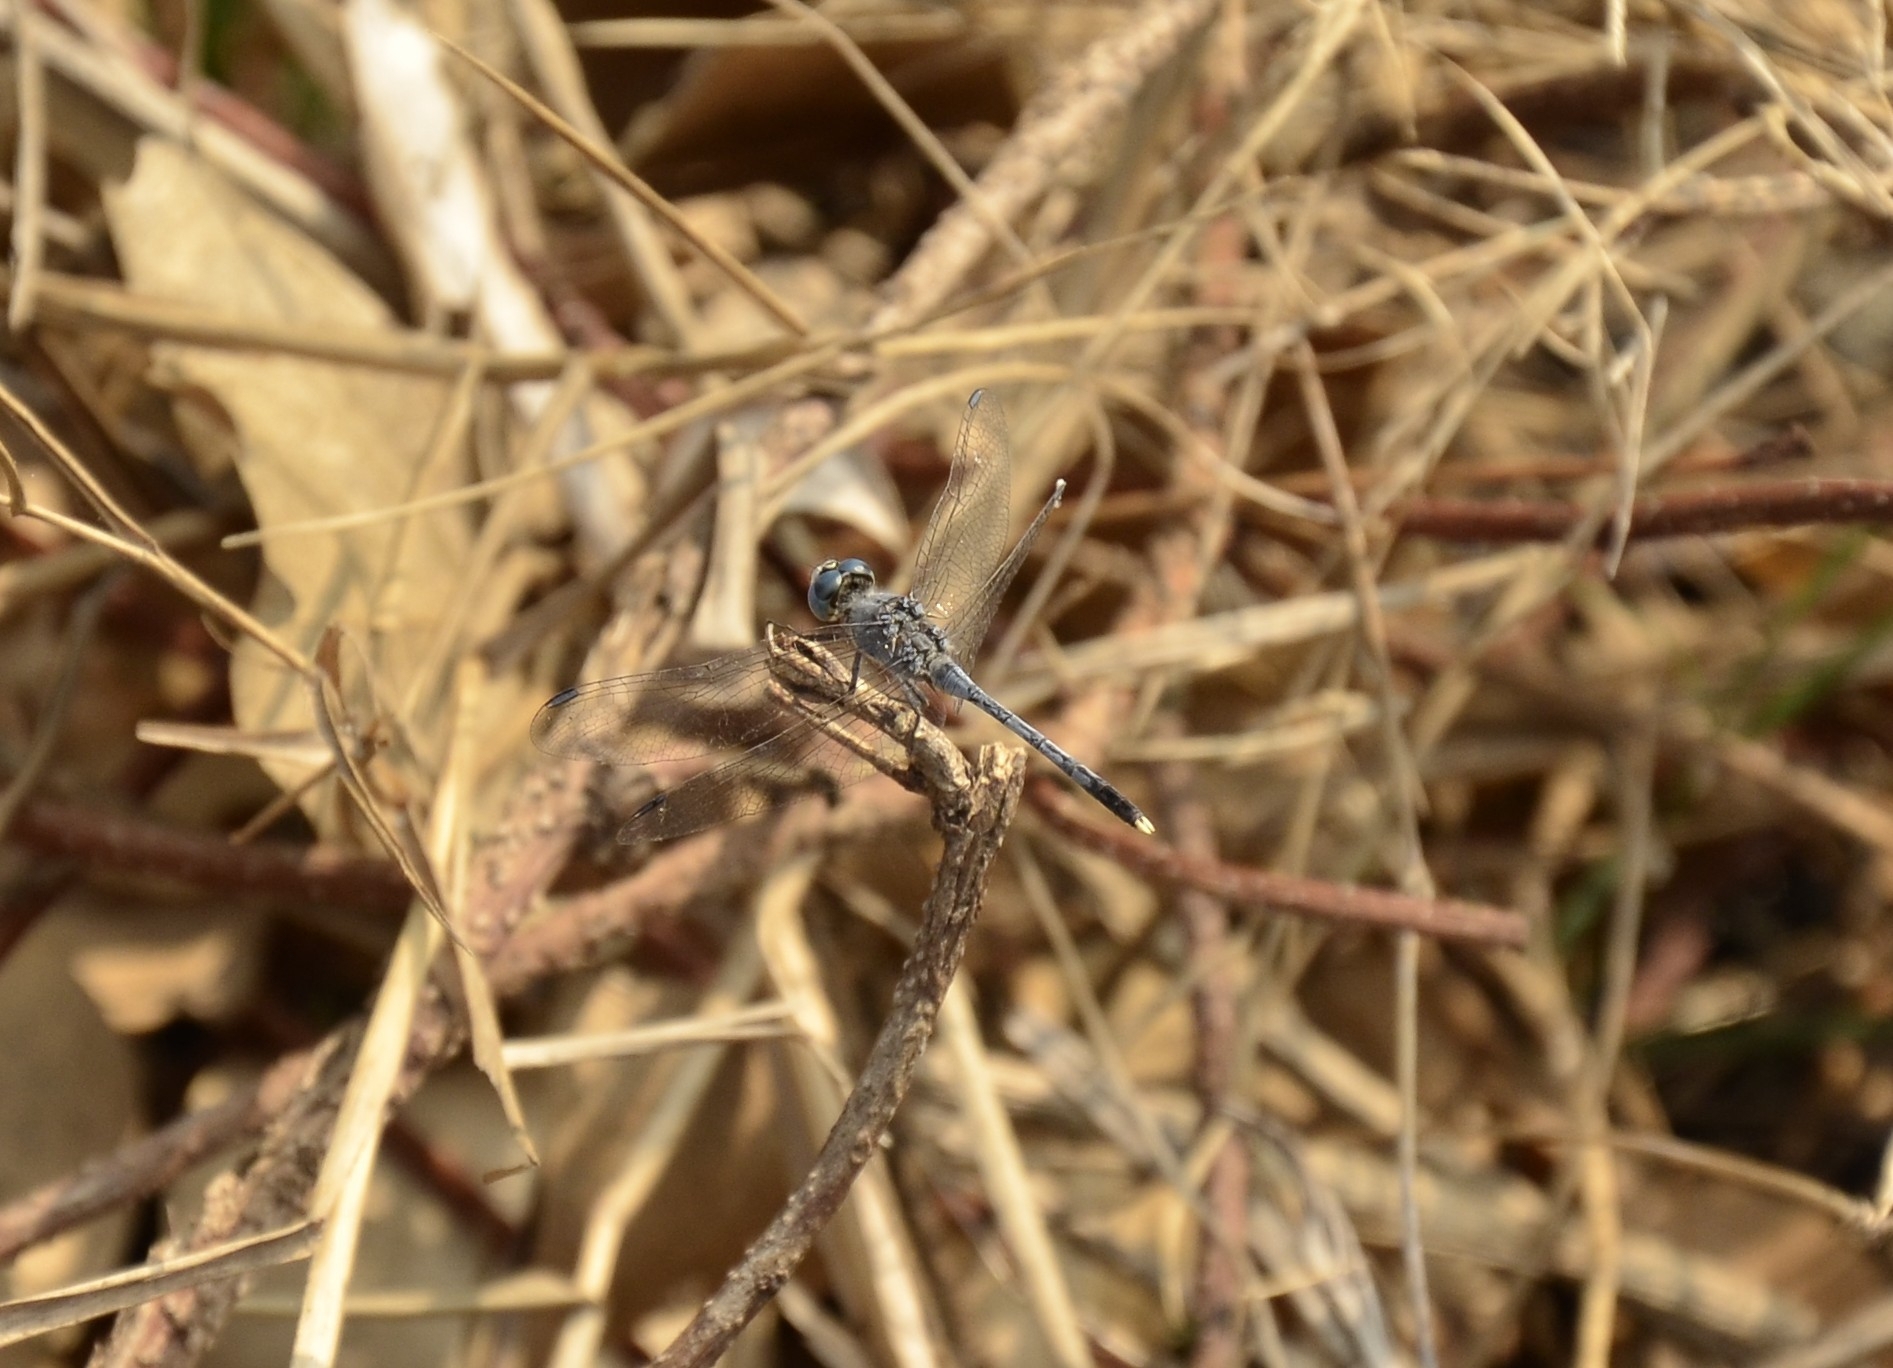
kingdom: Animalia
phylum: Arthropoda
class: Insecta
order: Odonata
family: Libellulidae
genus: Diplacodes
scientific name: Diplacodes trivialis
